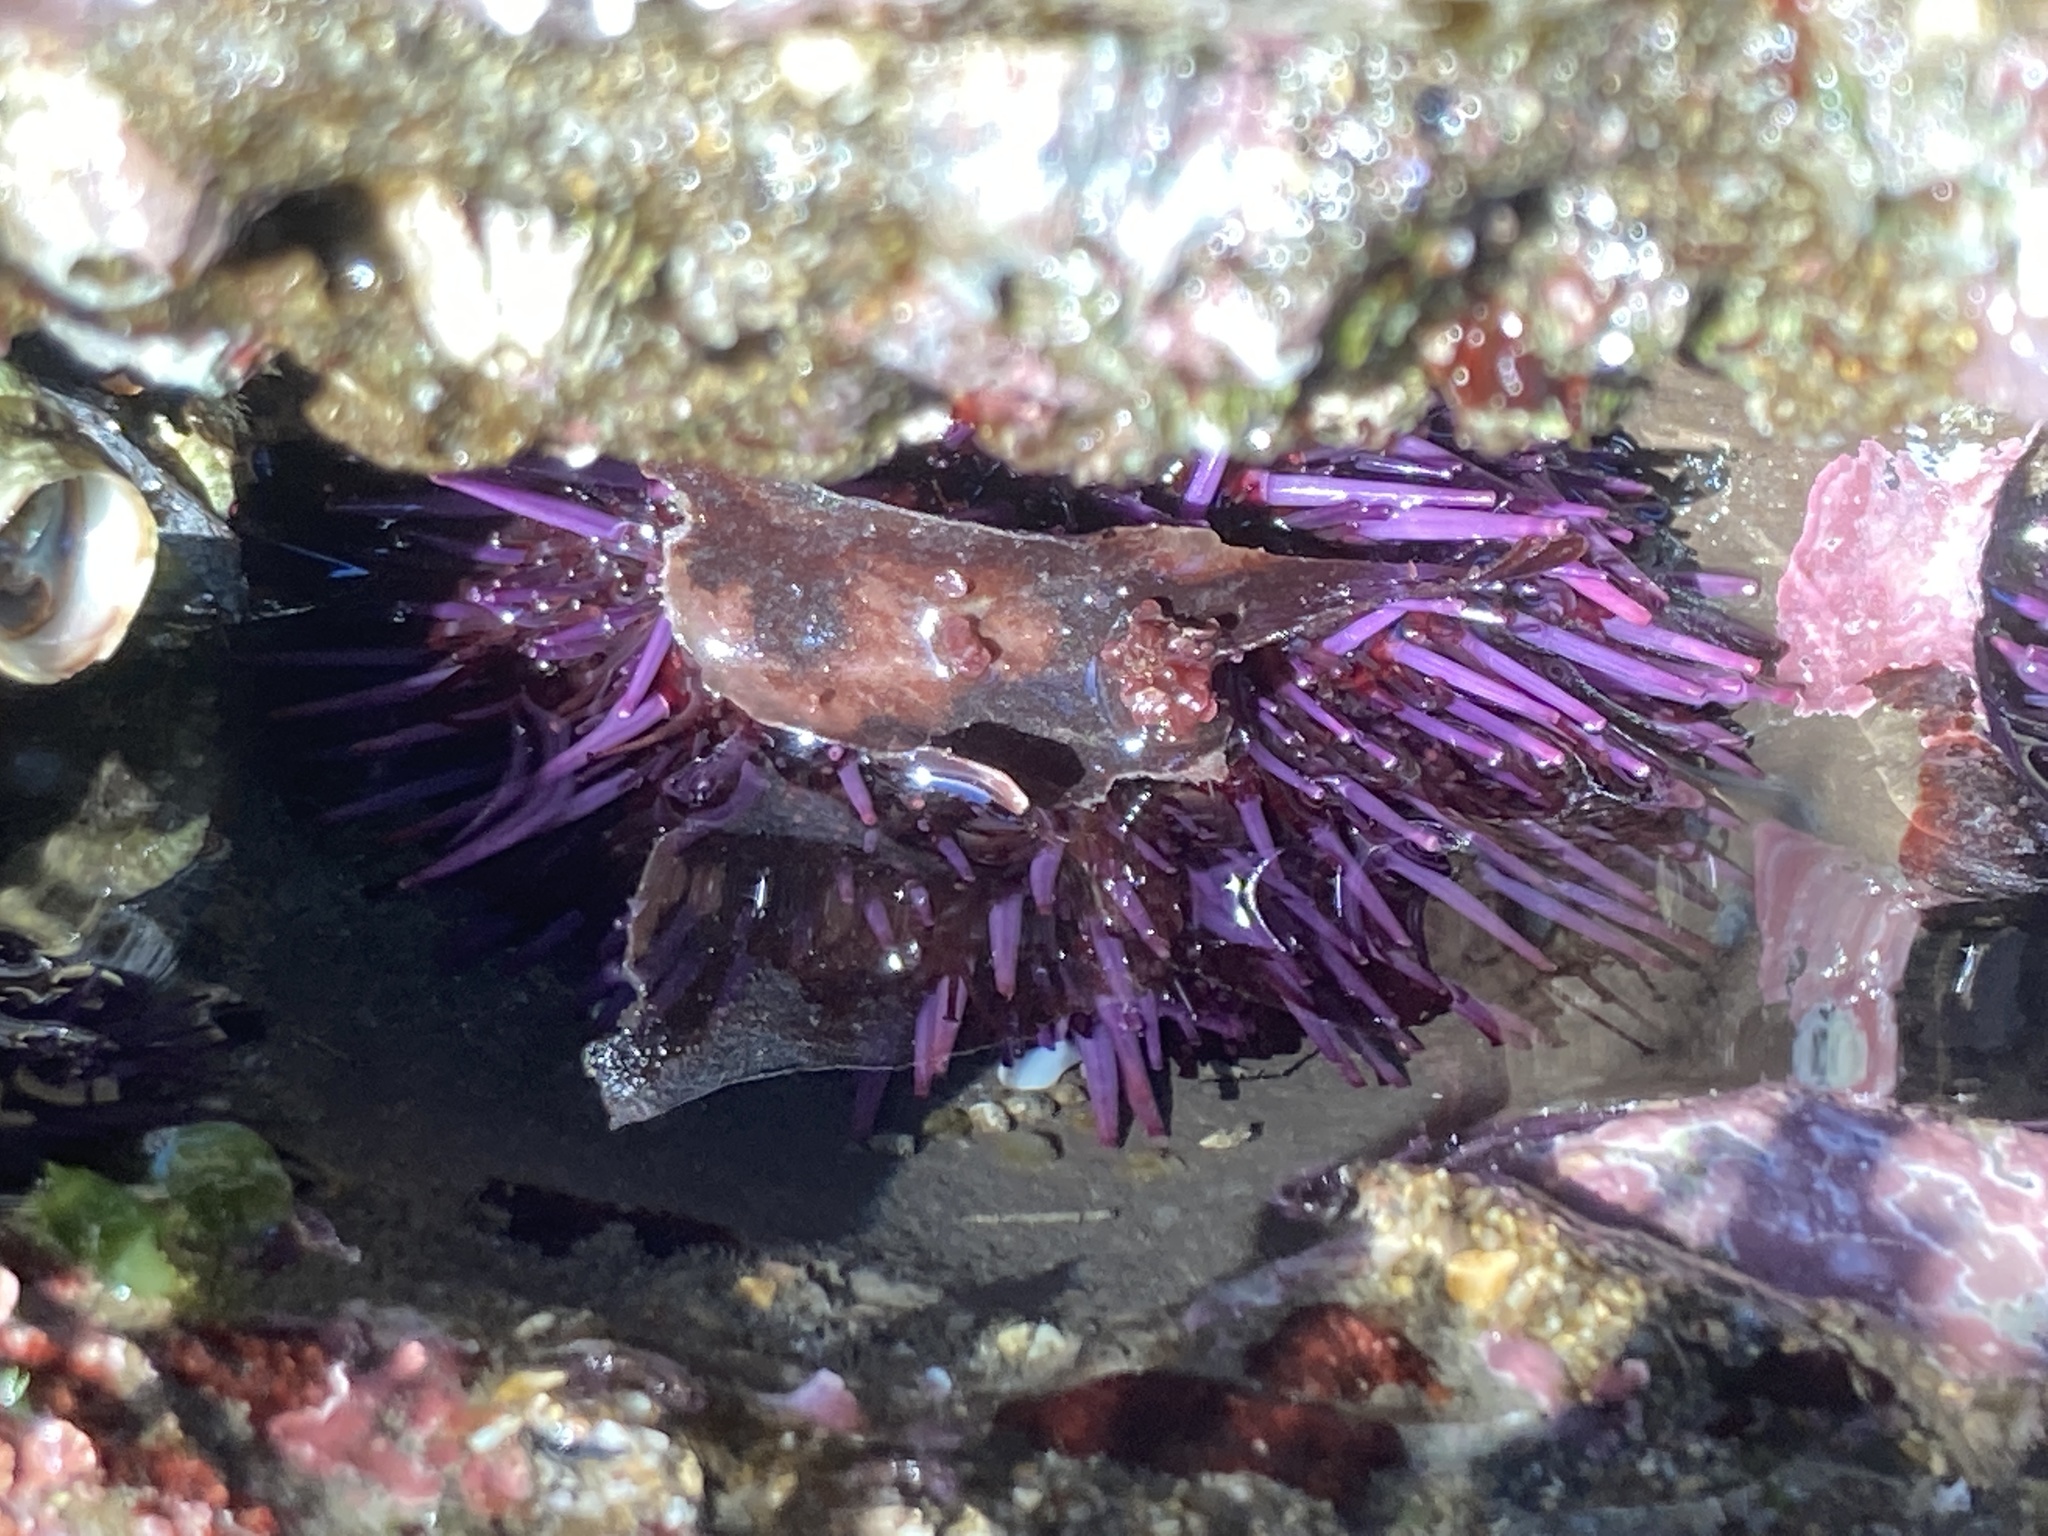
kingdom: Animalia
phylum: Echinodermata
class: Echinoidea
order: Camarodonta
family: Strongylocentrotidae
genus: Strongylocentrotus
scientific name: Strongylocentrotus purpuratus
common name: Purple sea urchin
